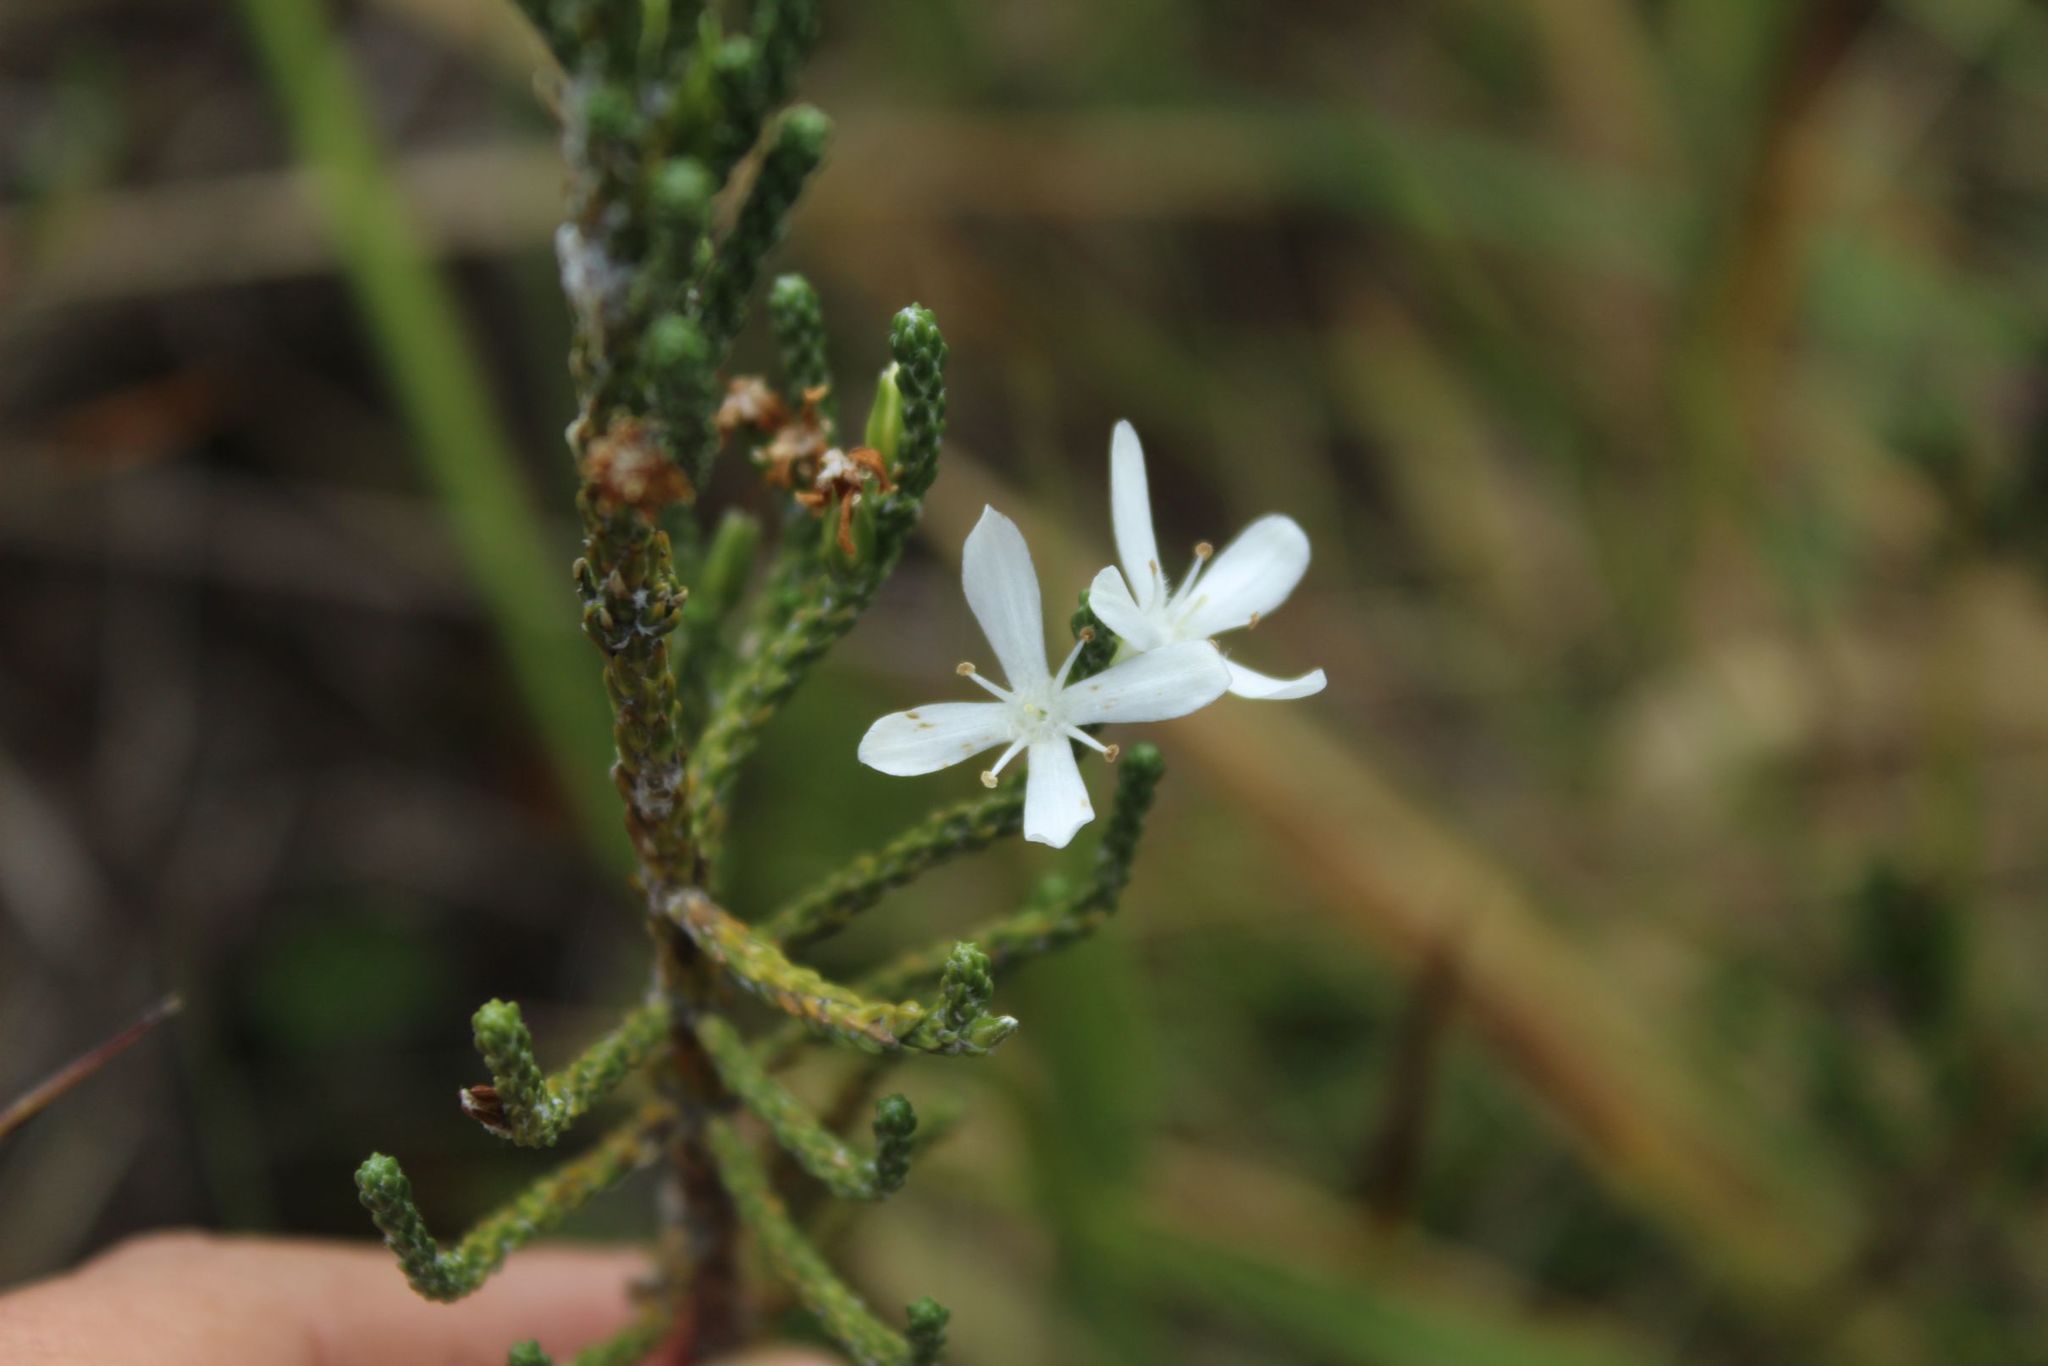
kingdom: Plantae
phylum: Tracheophyta
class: Magnoliopsida
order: Lamiales
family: Plantaginaceae
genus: Aragoa
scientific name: Aragoa cupressina
